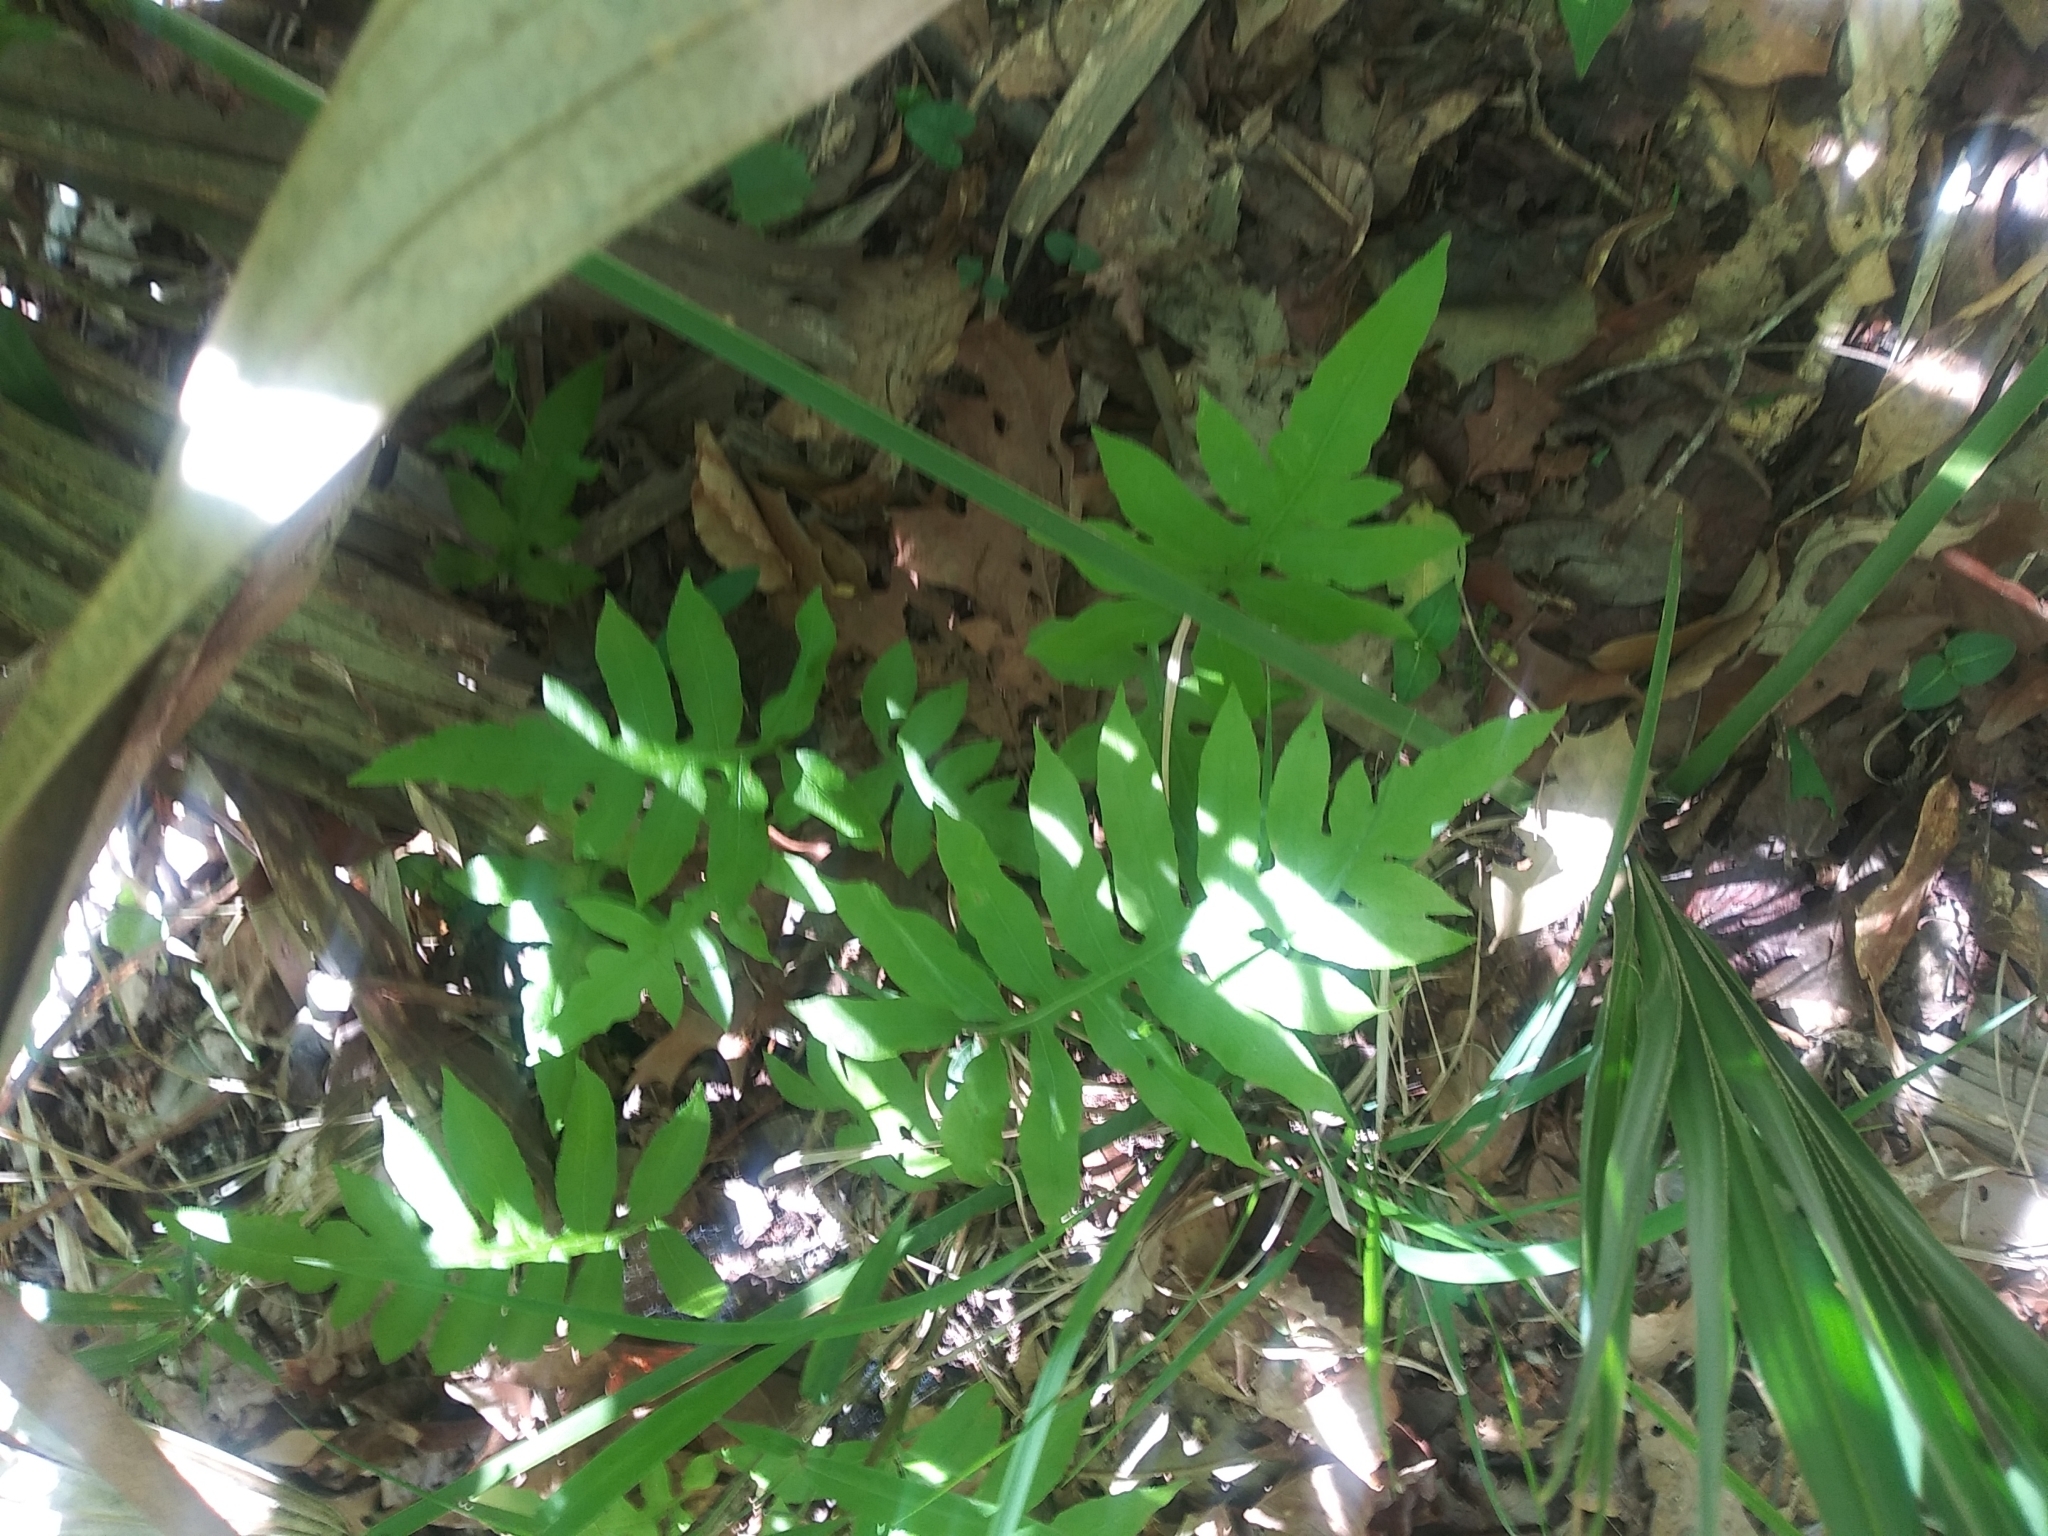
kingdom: Plantae
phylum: Tracheophyta
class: Polypodiopsida
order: Polypodiales
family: Blechnaceae
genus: Lorinseria
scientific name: Lorinseria areolata
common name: Dwarf chain fern
